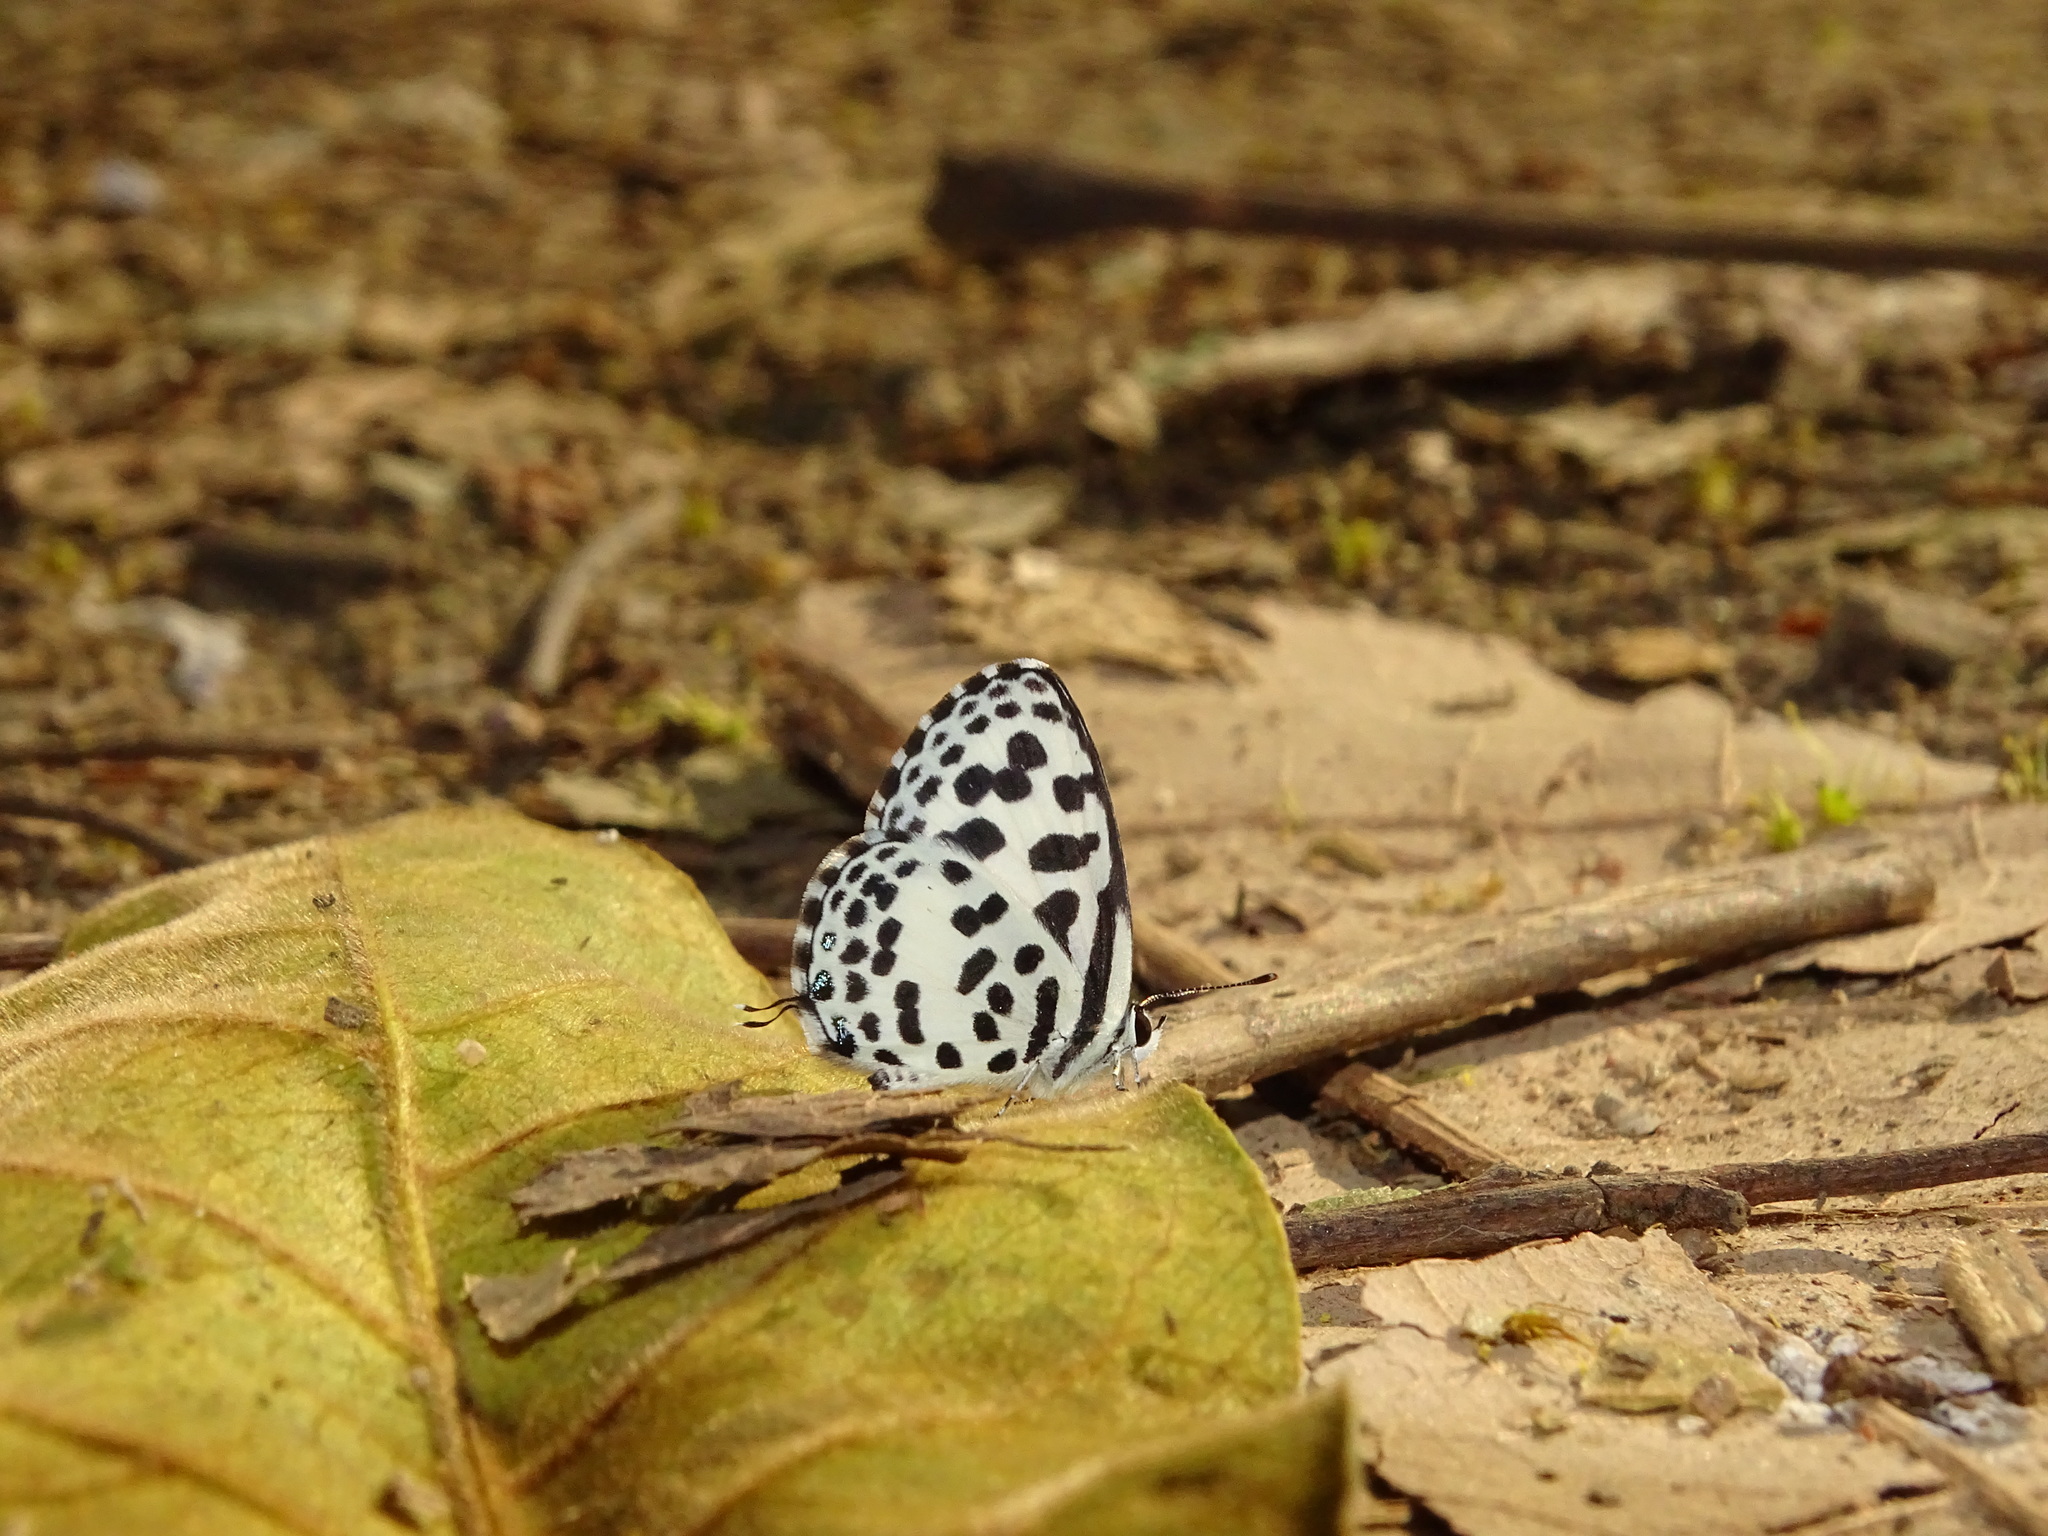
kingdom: Animalia
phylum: Arthropoda
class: Insecta
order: Lepidoptera
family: Lycaenidae
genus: Castalius
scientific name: Castalius rosimon
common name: Common pierrot
